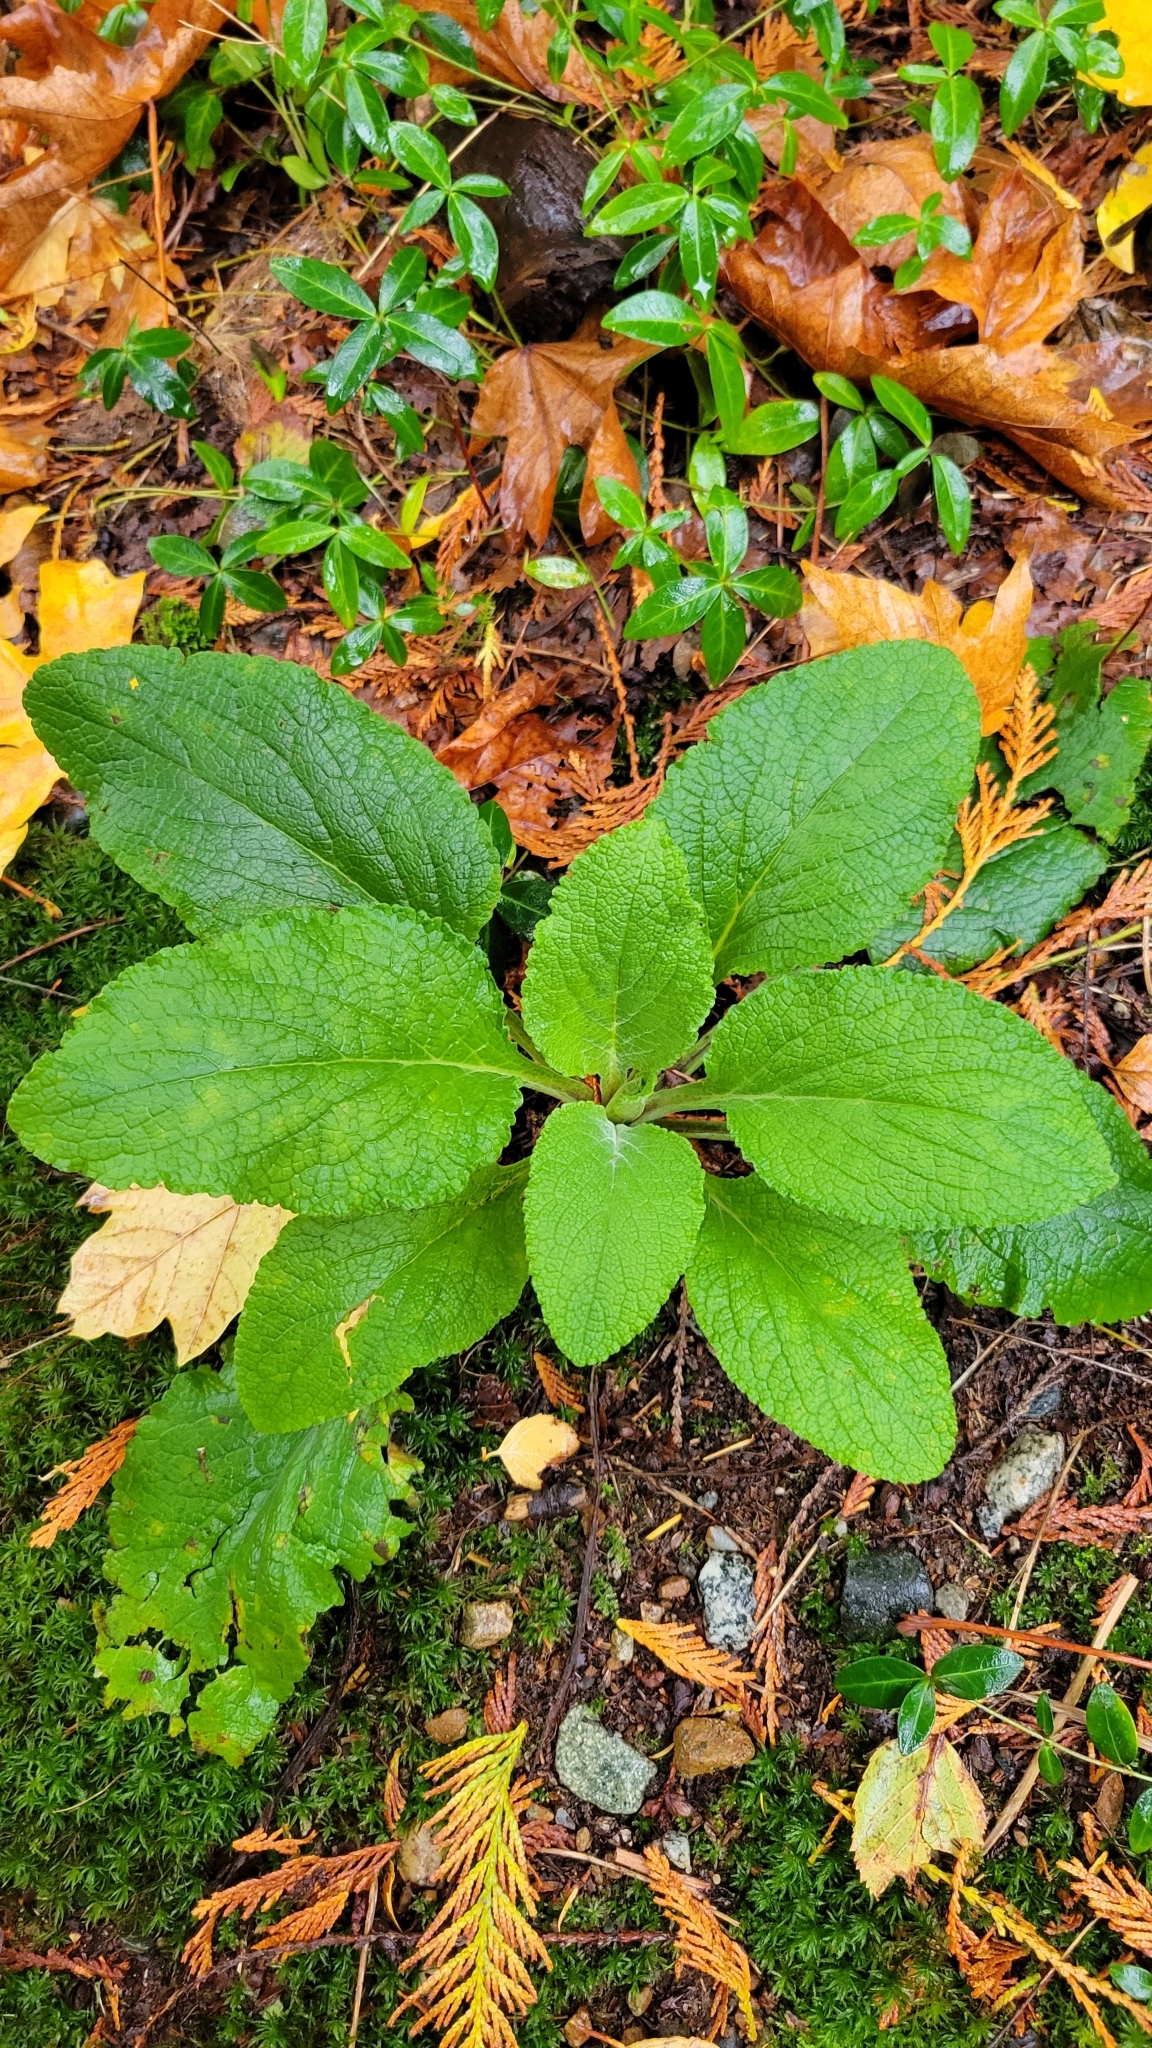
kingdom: Plantae
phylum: Tracheophyta
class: Magnoliopsida
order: Lamiales
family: Plantaginaceae
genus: Digitalis
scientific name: Digitalis purpurea
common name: Foxglove
